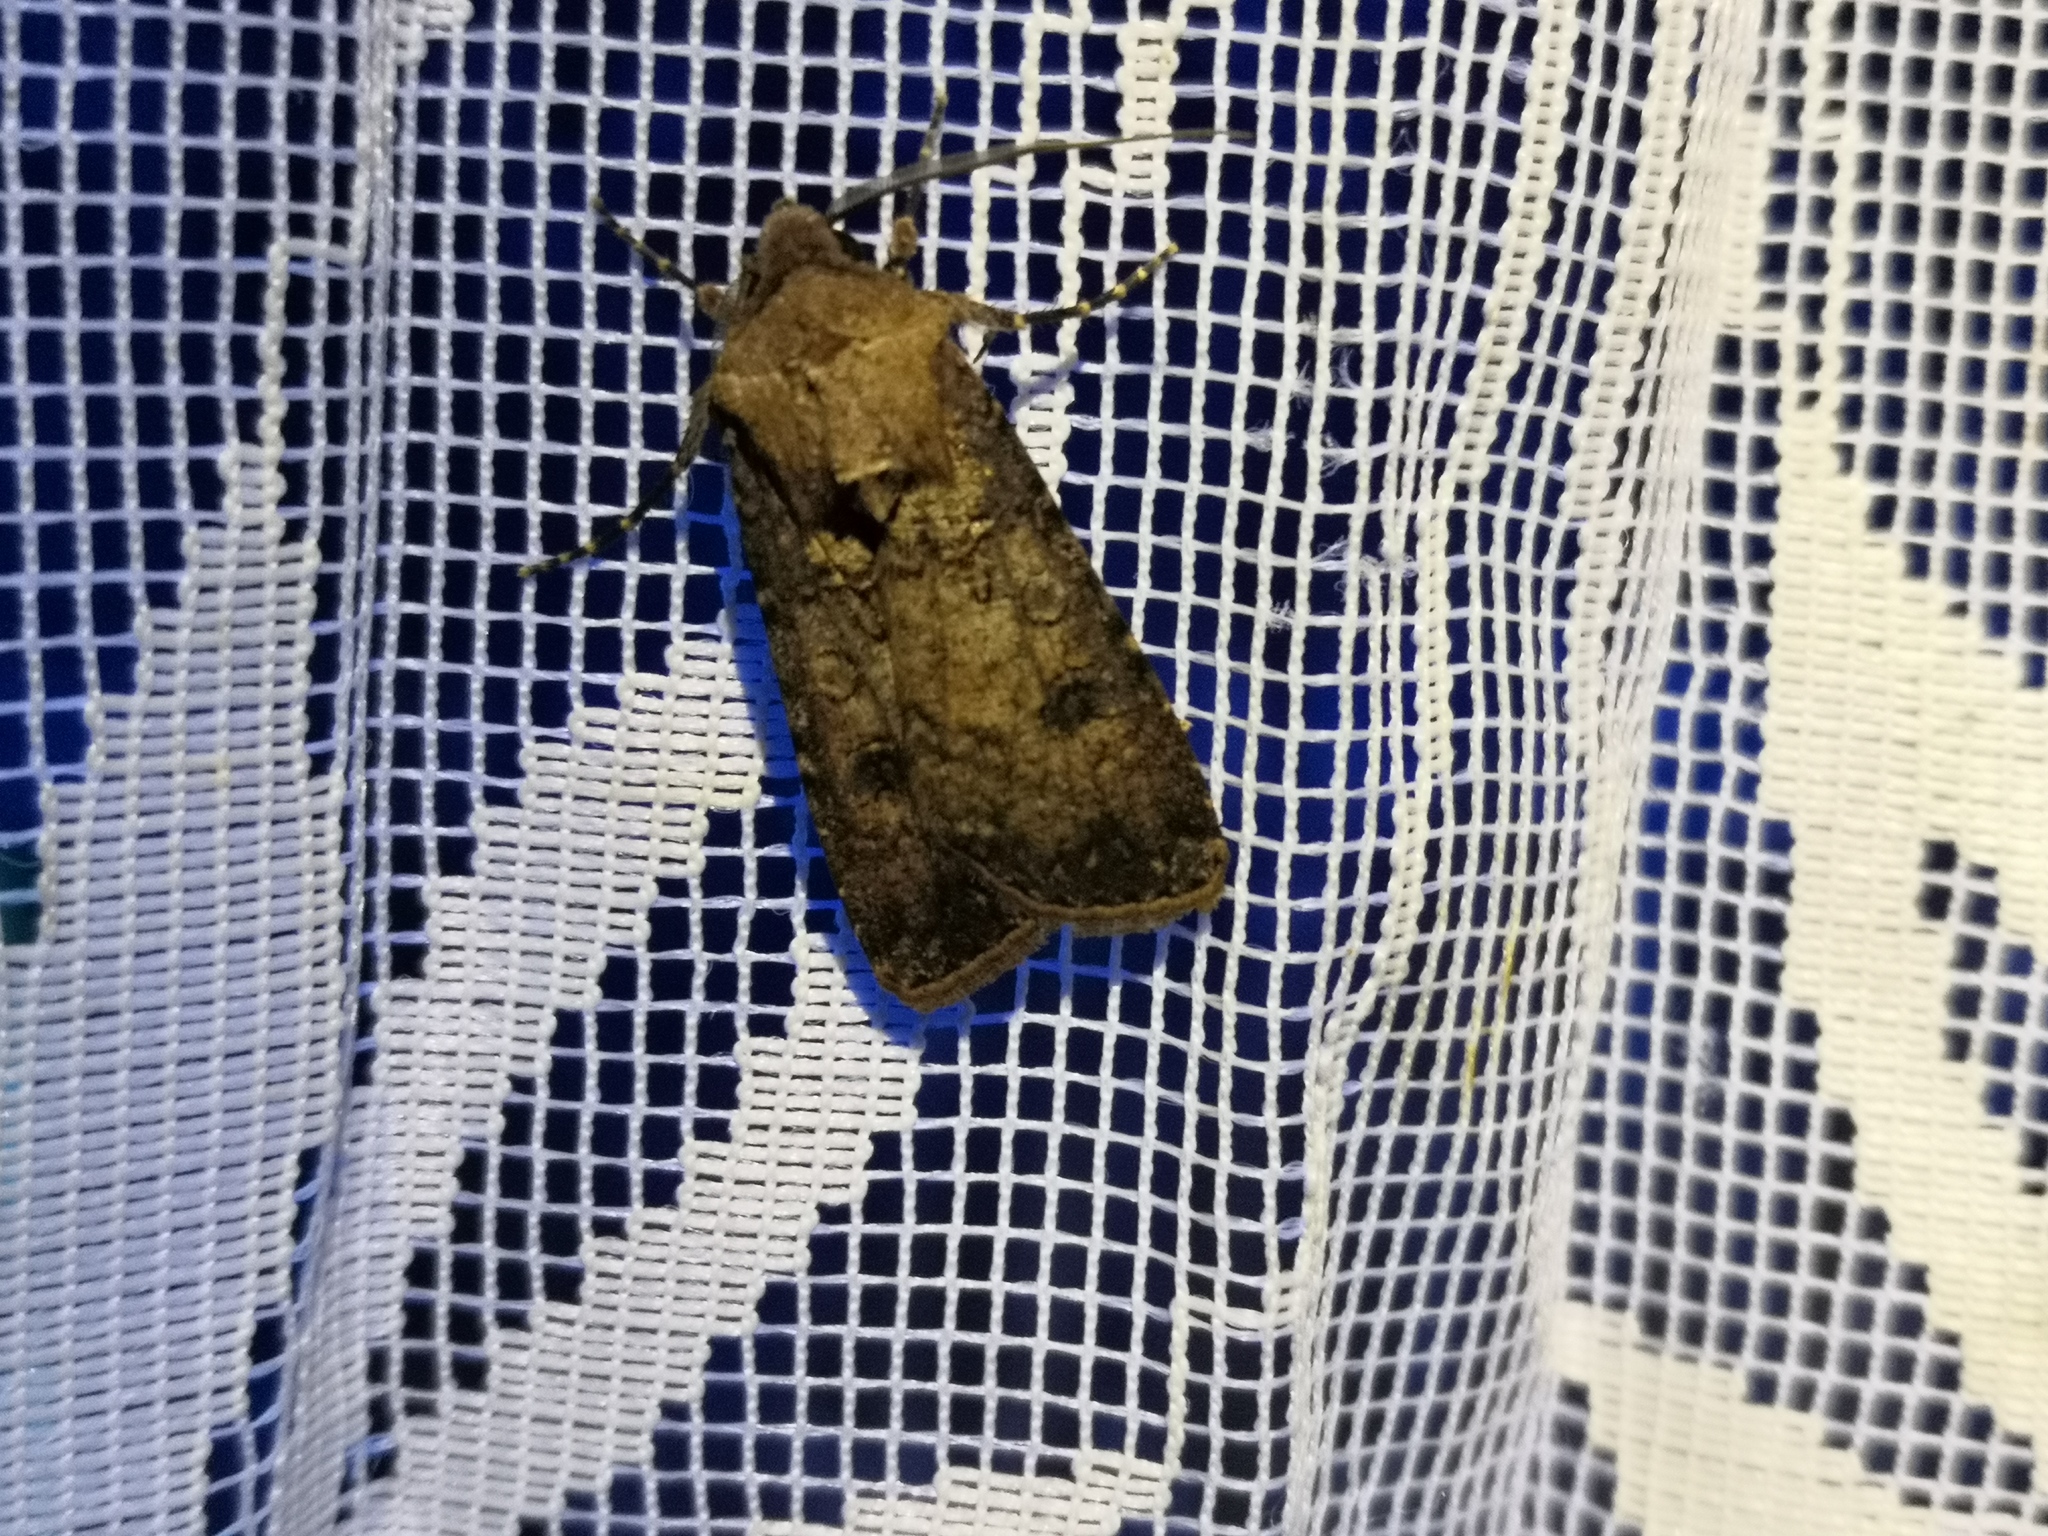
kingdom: Animalia
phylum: Arthropoda
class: Insecta
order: Lepidoptera
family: Noctuidae
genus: Agrotis
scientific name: Agrotis segetum
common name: Turnip moth
